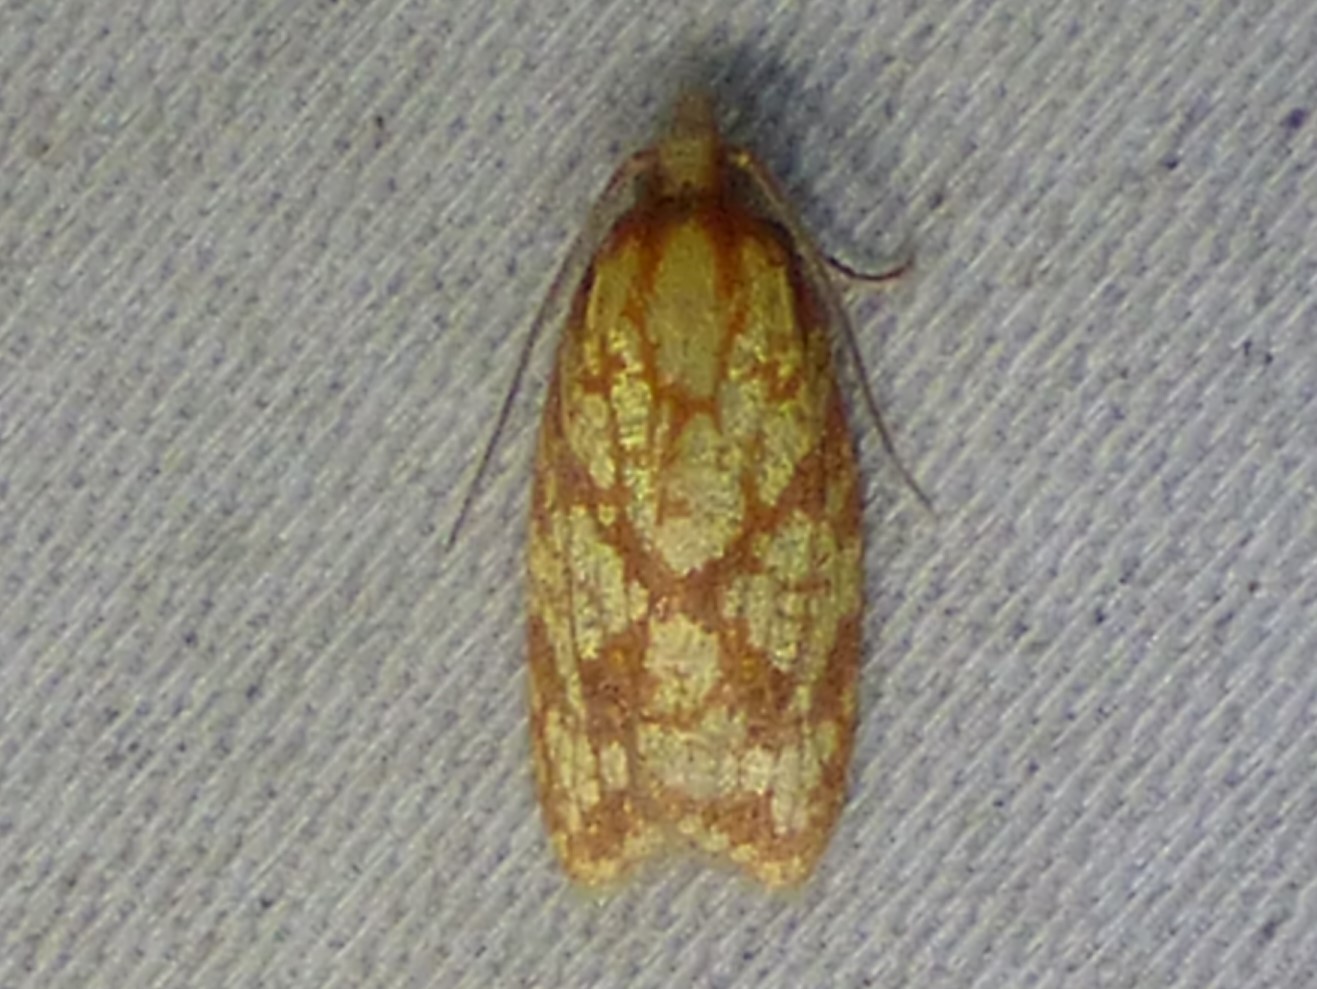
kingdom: Animalia
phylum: Arthropoda
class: Insecta
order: Lepidoptera
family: Tortricidae
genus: Sparganothis
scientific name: Sparganothis sulfureana
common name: Sparganothis fruitworm moth
